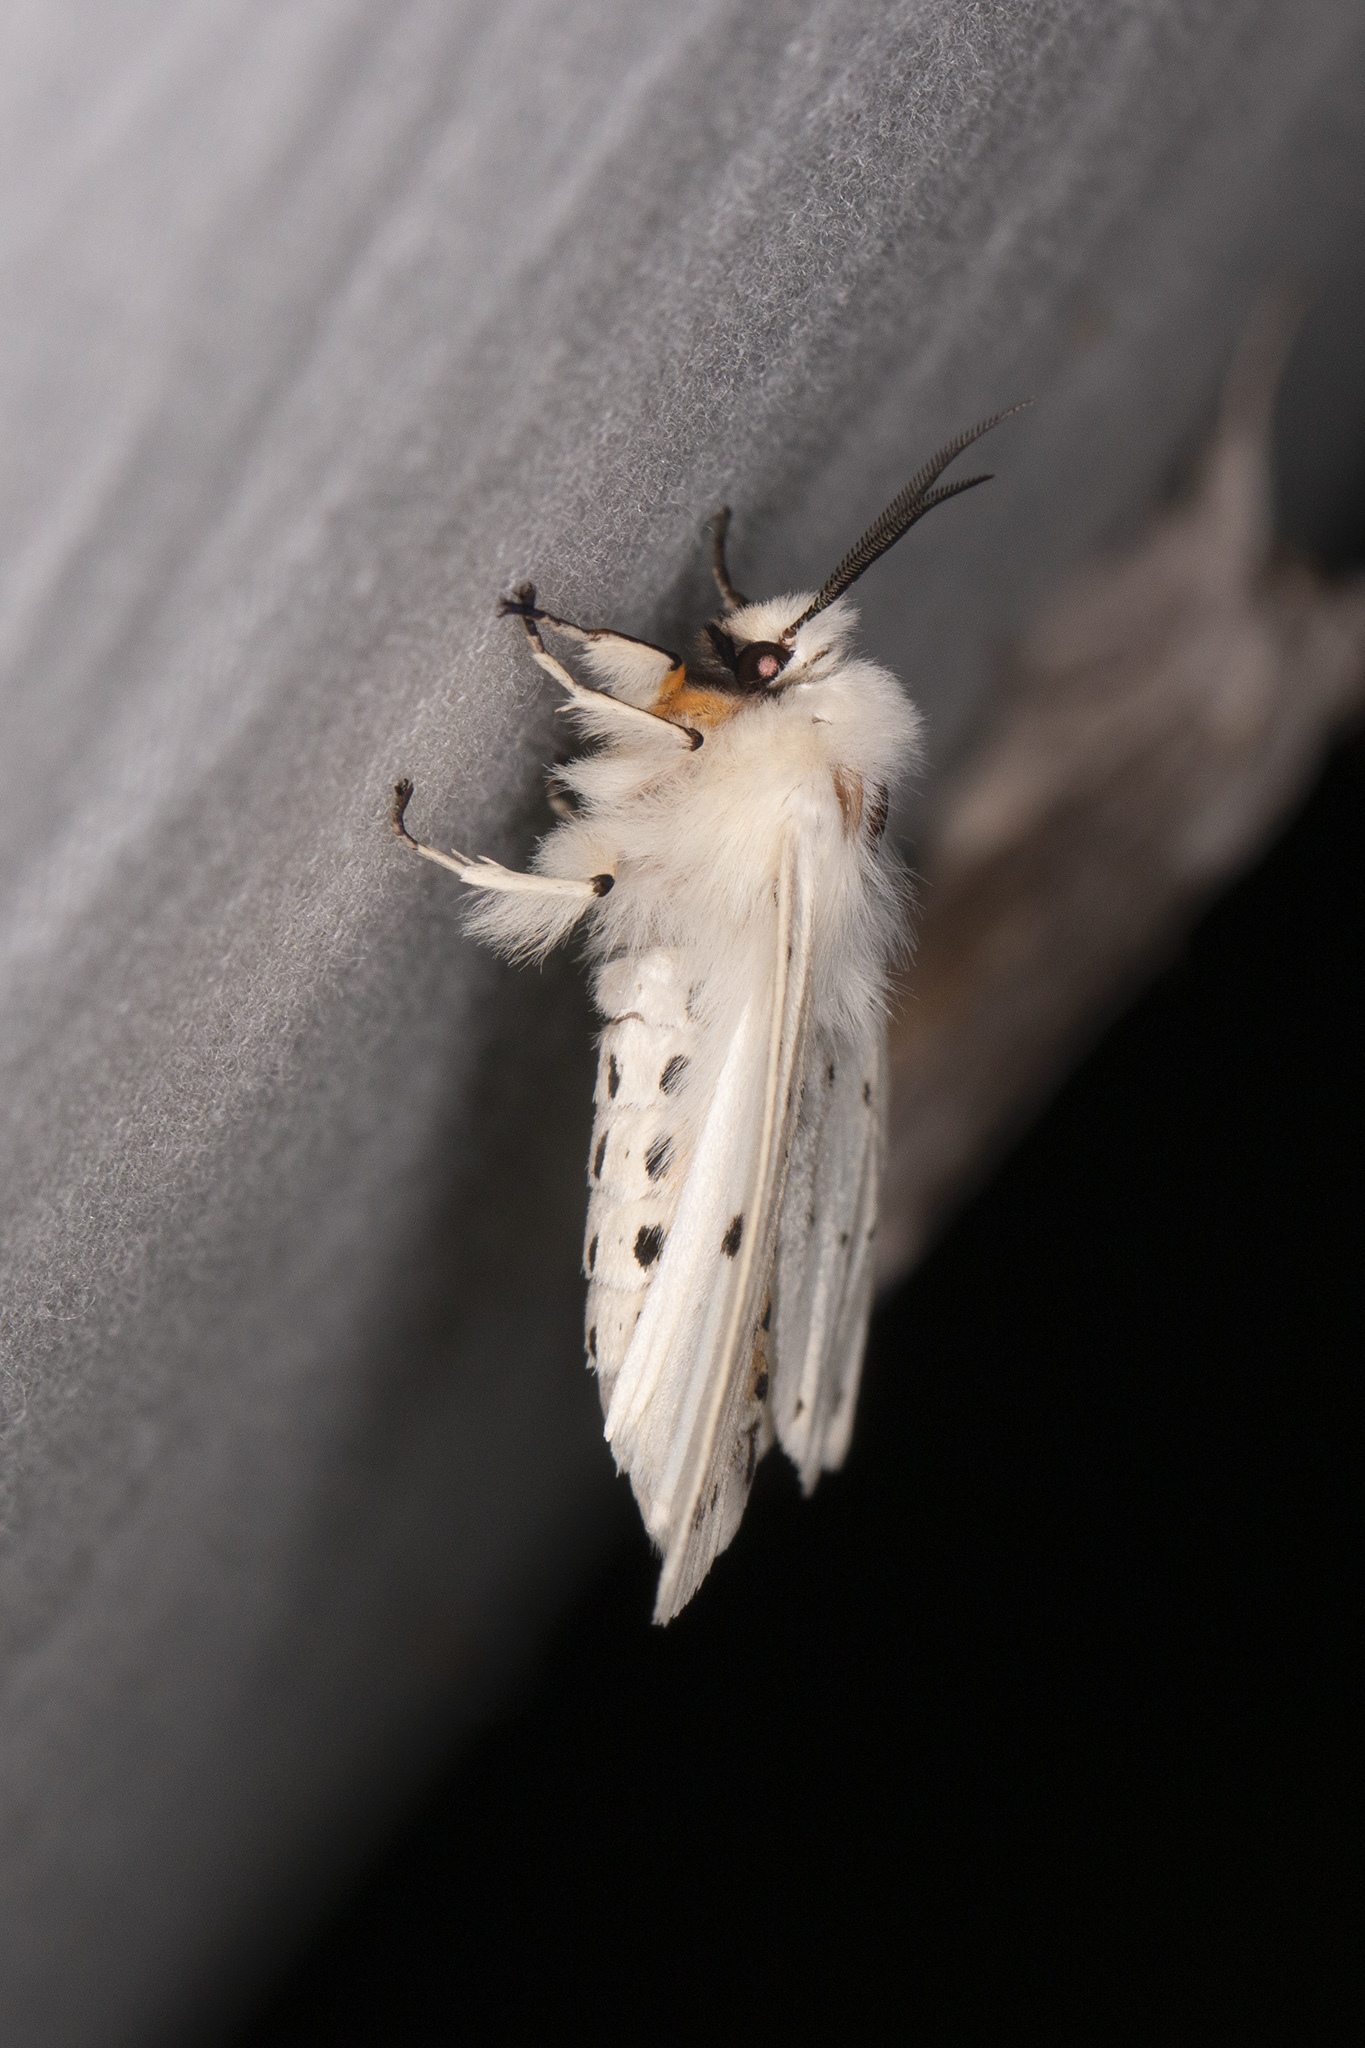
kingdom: Animalia
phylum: Arthropoda
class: Insecta
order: Lepidoptera
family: Erebidae
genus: Spilosoma
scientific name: Spilosoma lubricipeda
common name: White ermine
